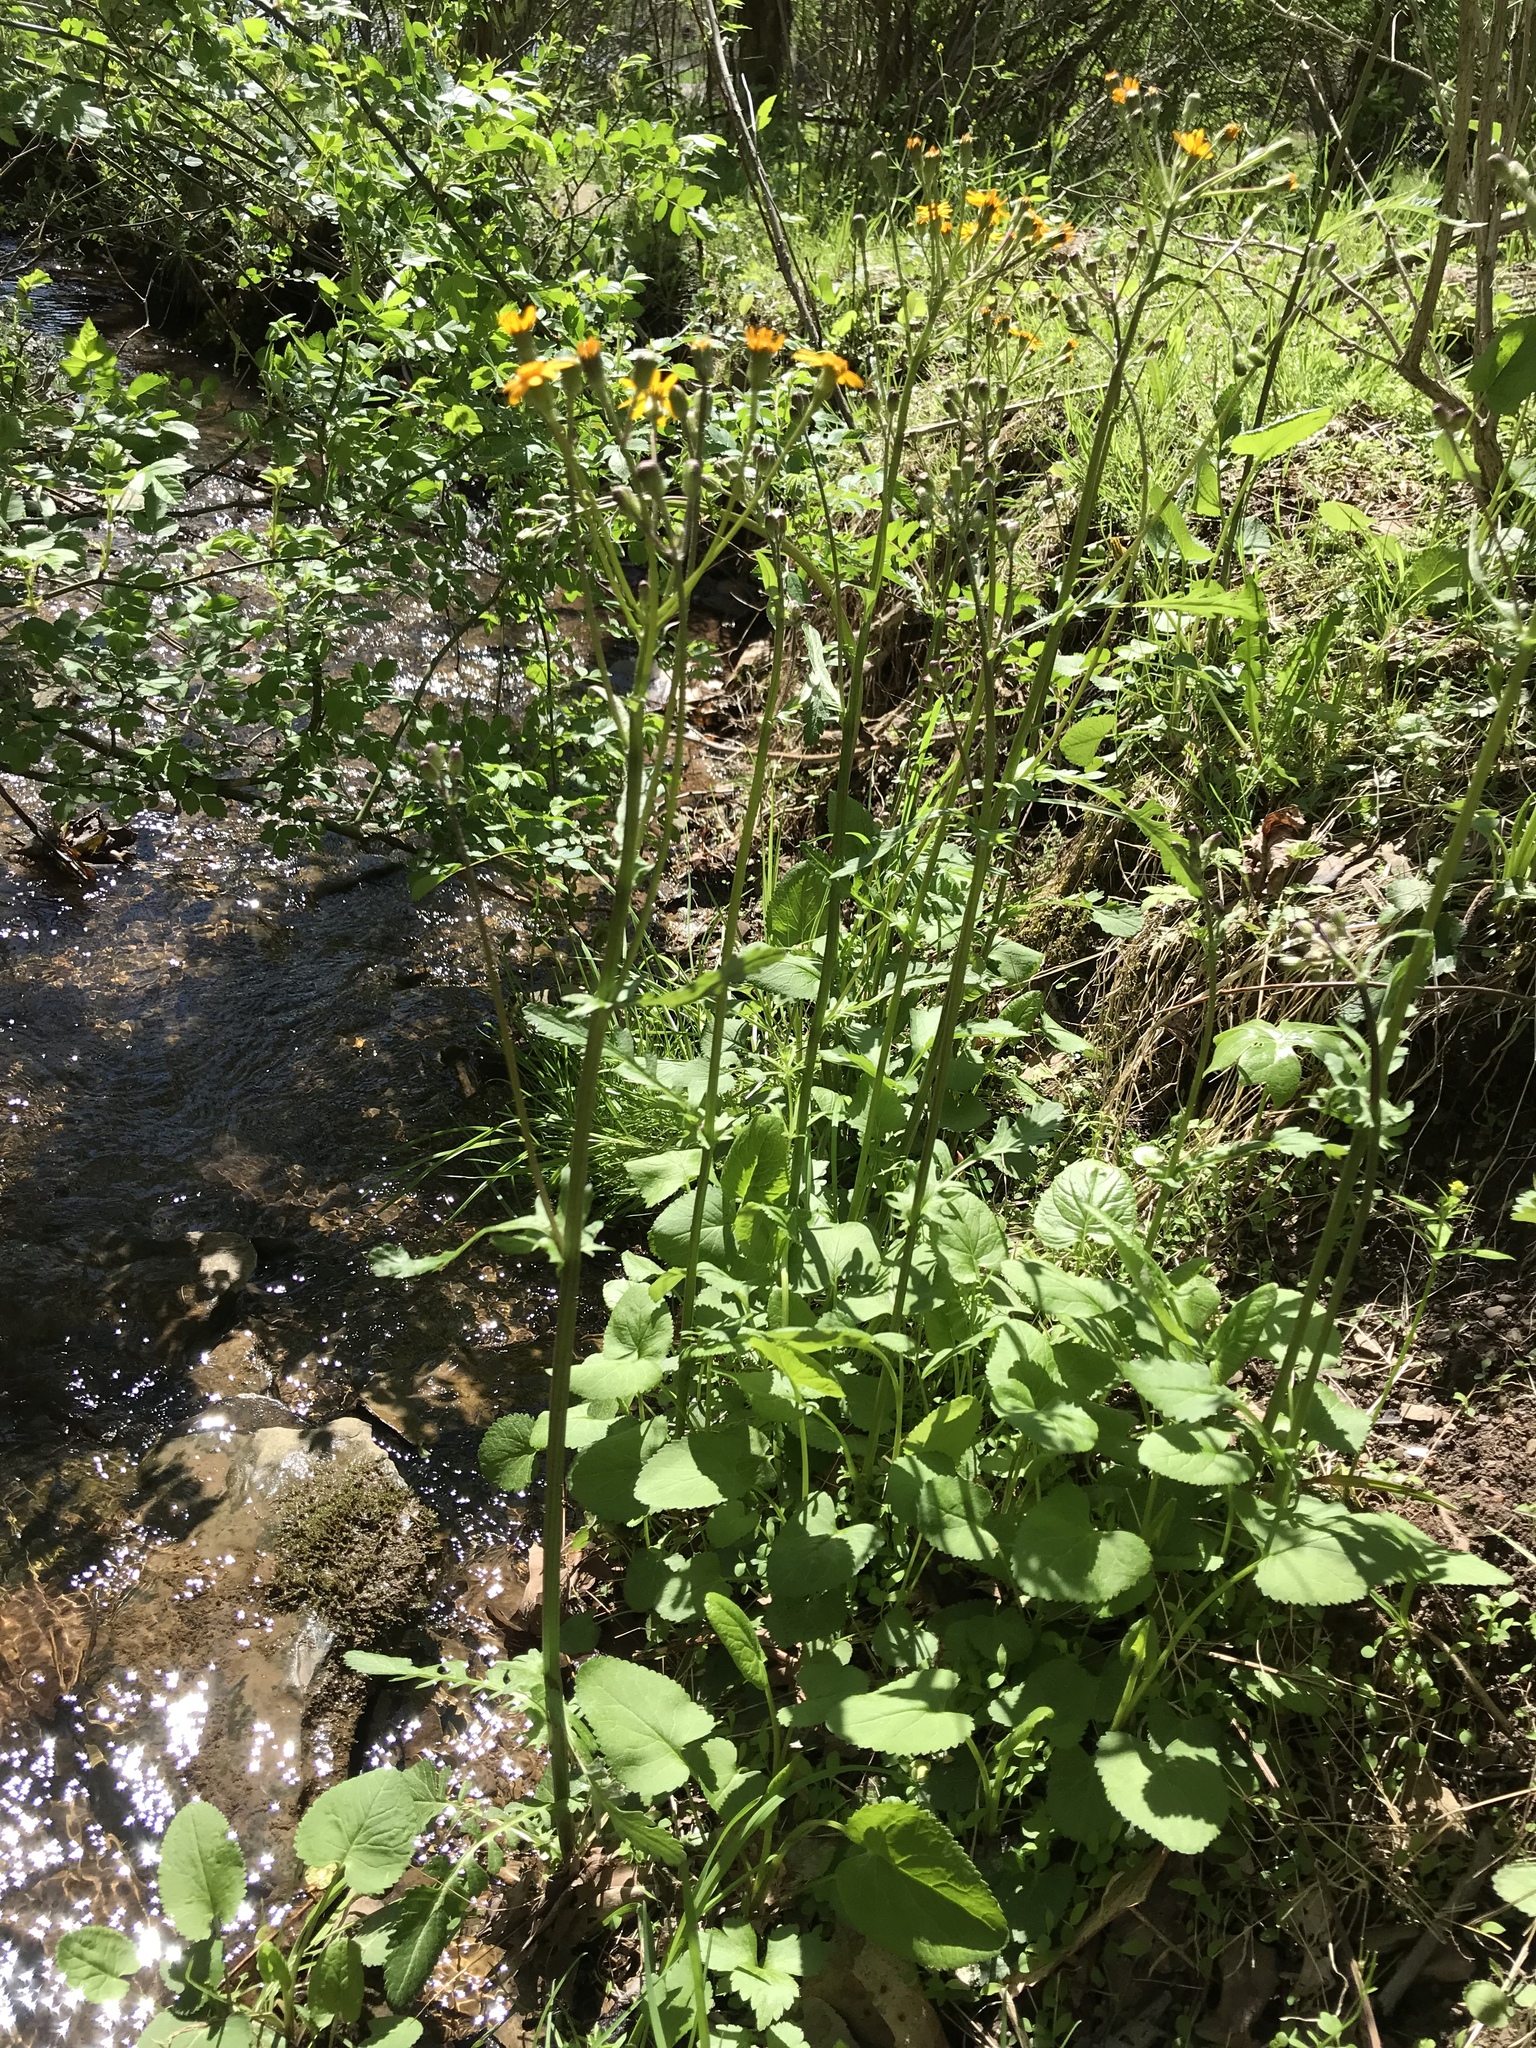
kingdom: Plantae
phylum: Tracheophyta
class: Magnoliopsida
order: Asterales
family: Asteraceae
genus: Packera
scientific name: Packera aurea
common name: Golden groundsel
